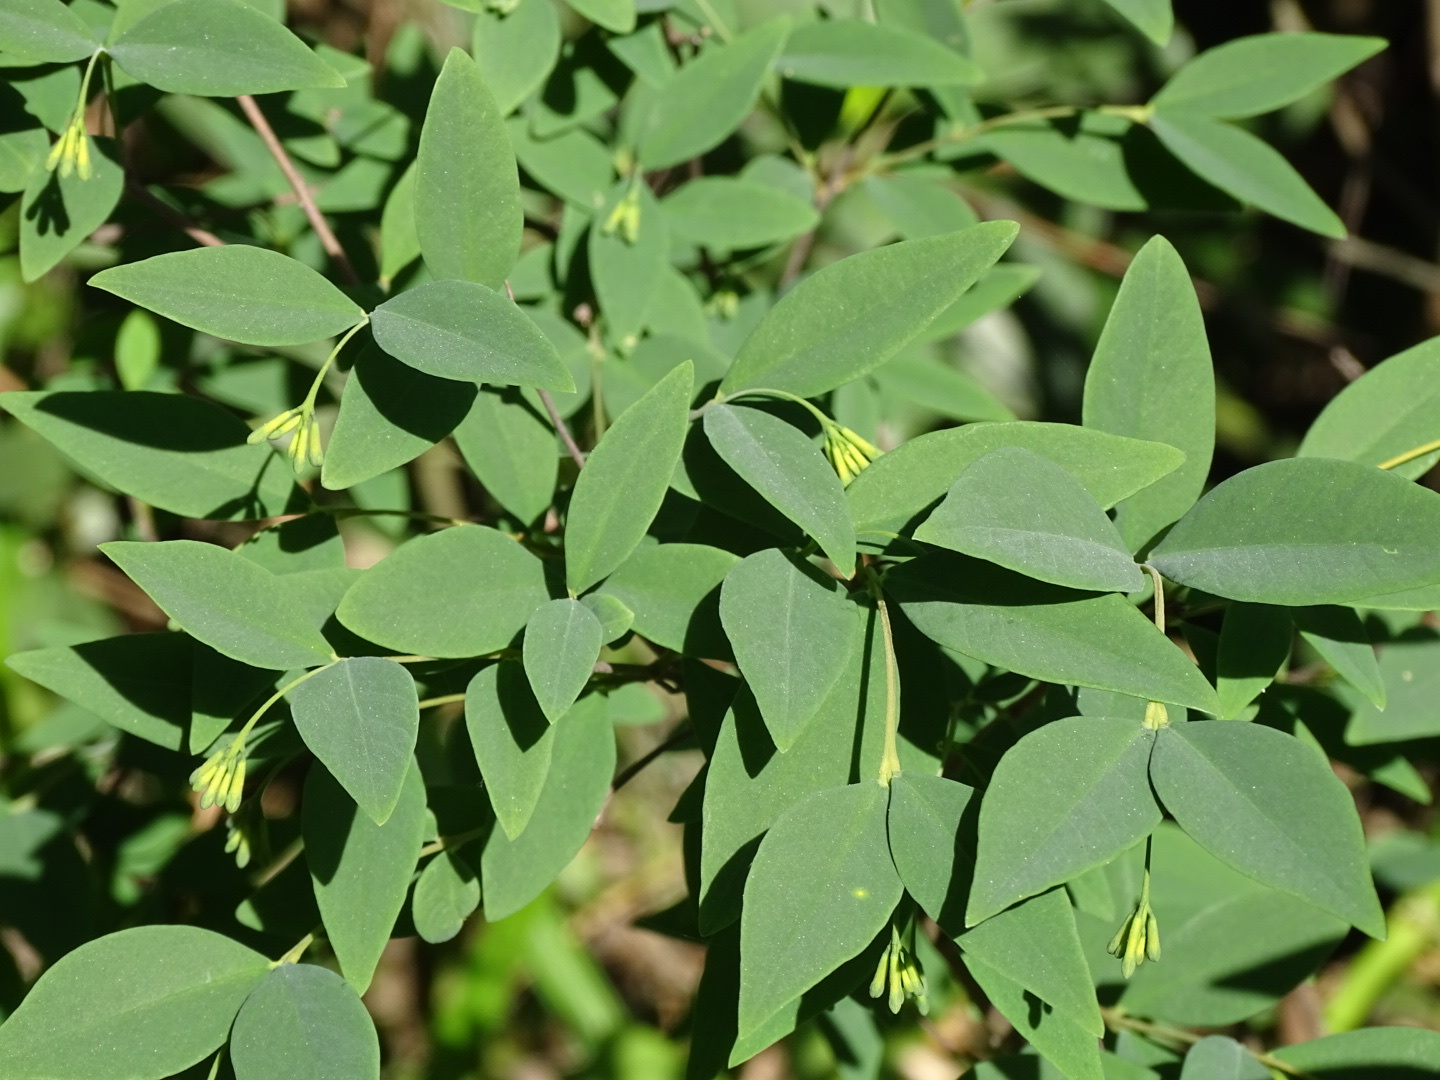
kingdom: Plantae
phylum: Tracheophyta
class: Magnoliopsida
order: Malvales
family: Thymelaeaceae
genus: Wikstroemia
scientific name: Wikstroemia nutans
